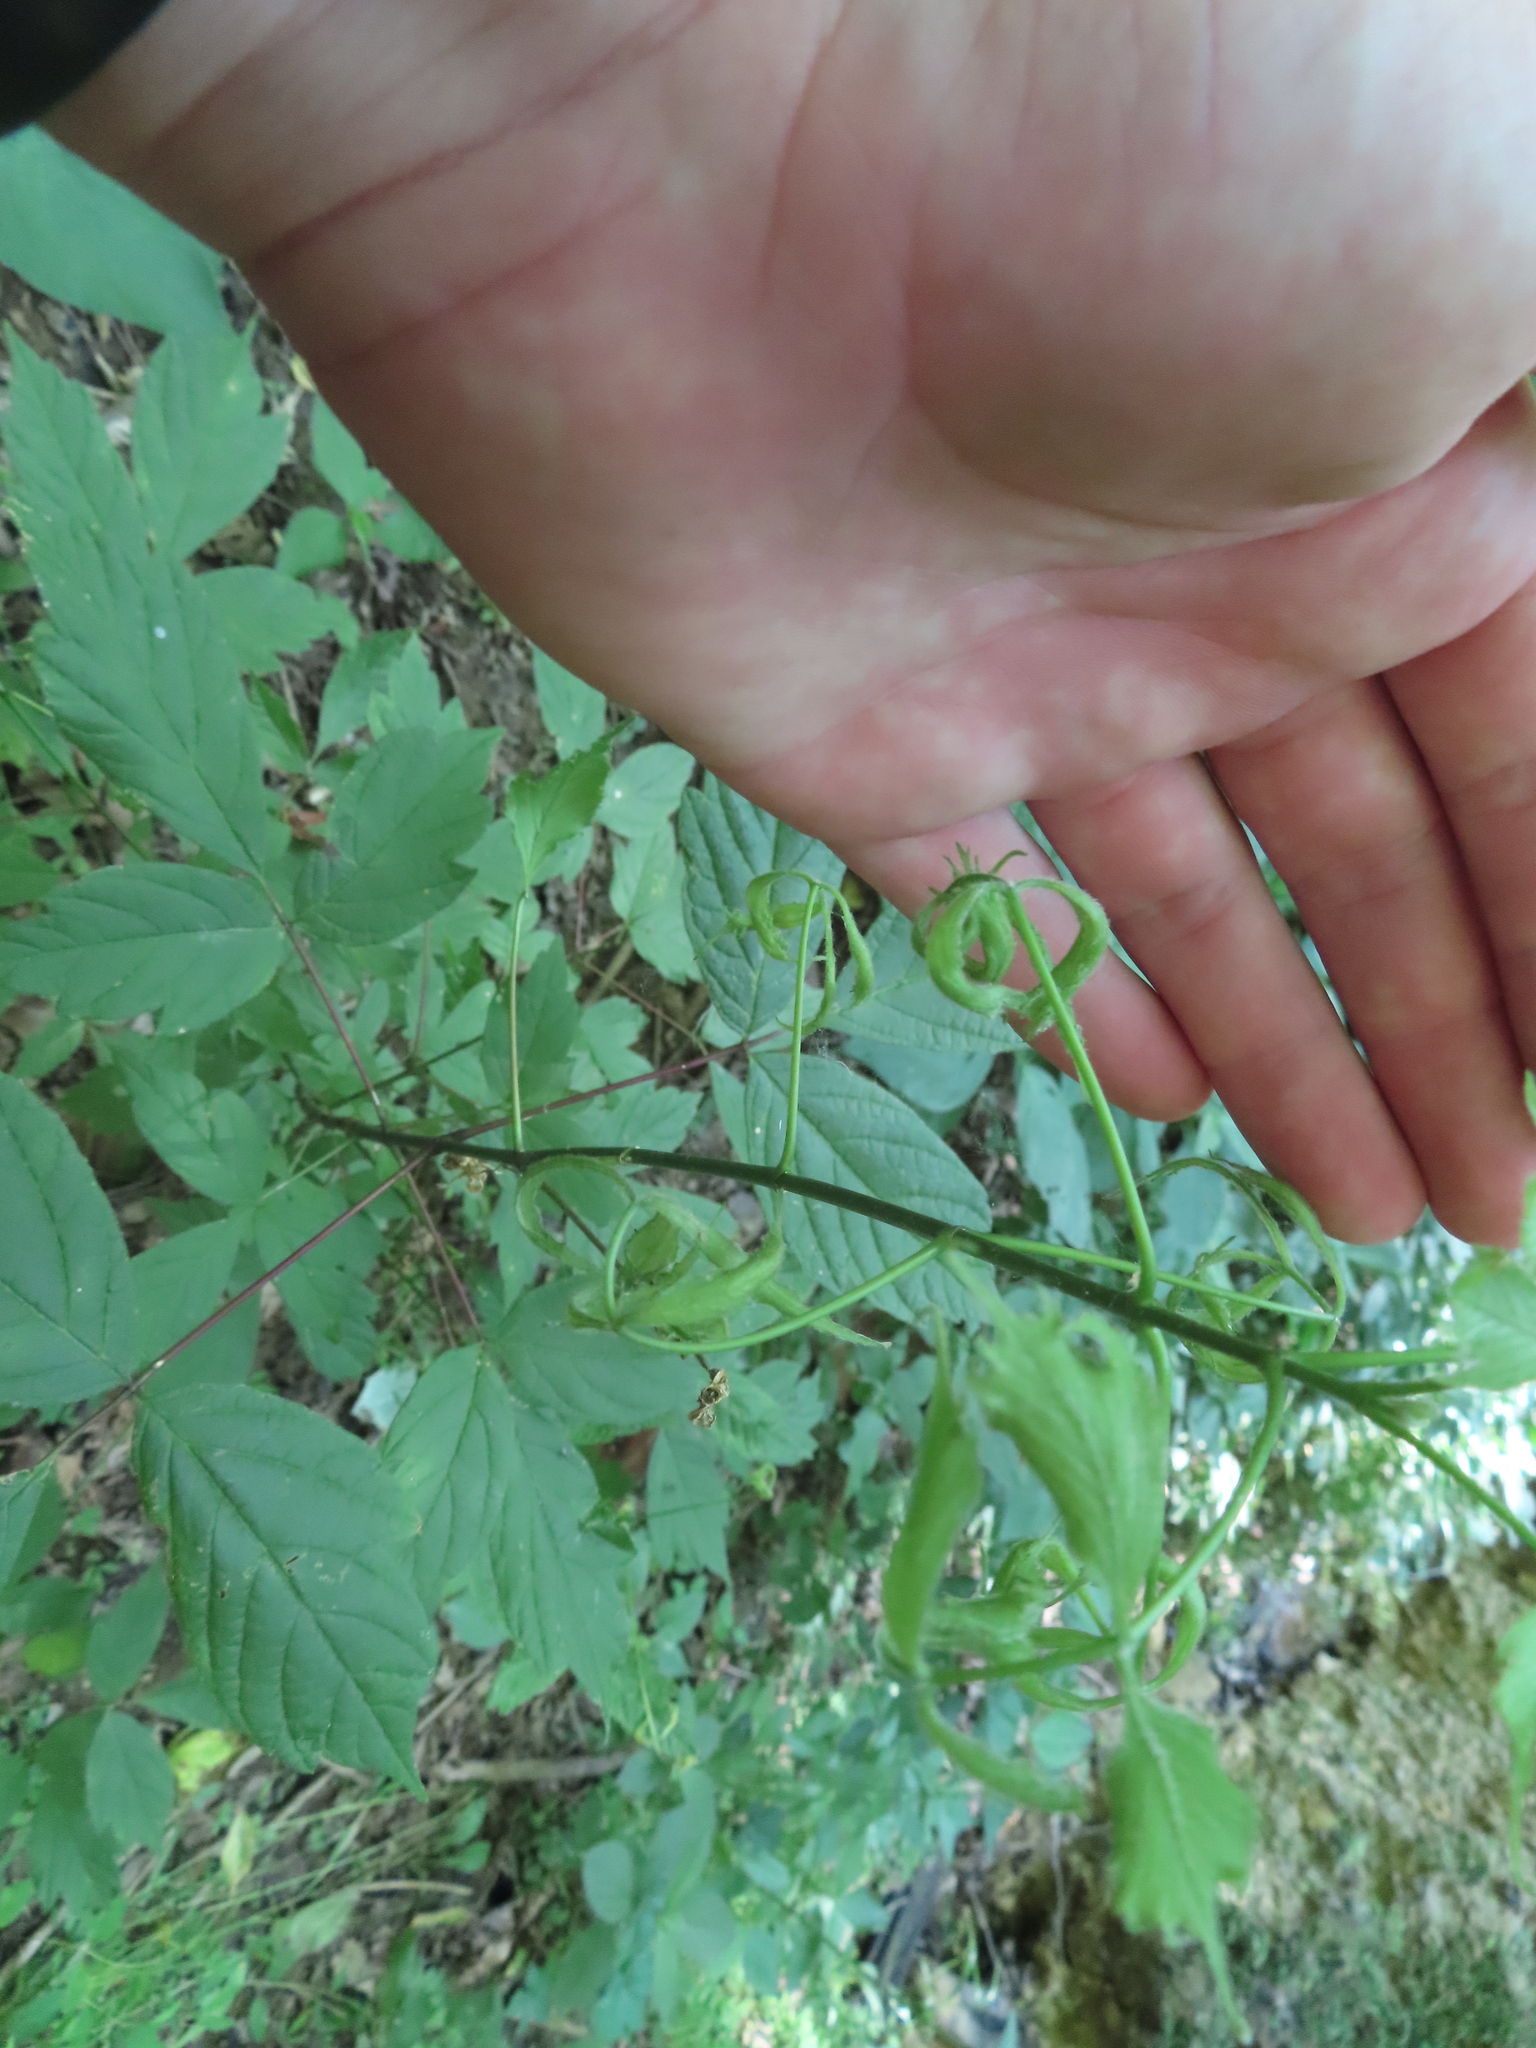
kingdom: Plantae
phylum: Tracheophyta
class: Magnoliopsida
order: Sapindales
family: Sapindaceae
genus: Acer
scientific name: Acer negundo
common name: Ashleaf maple
